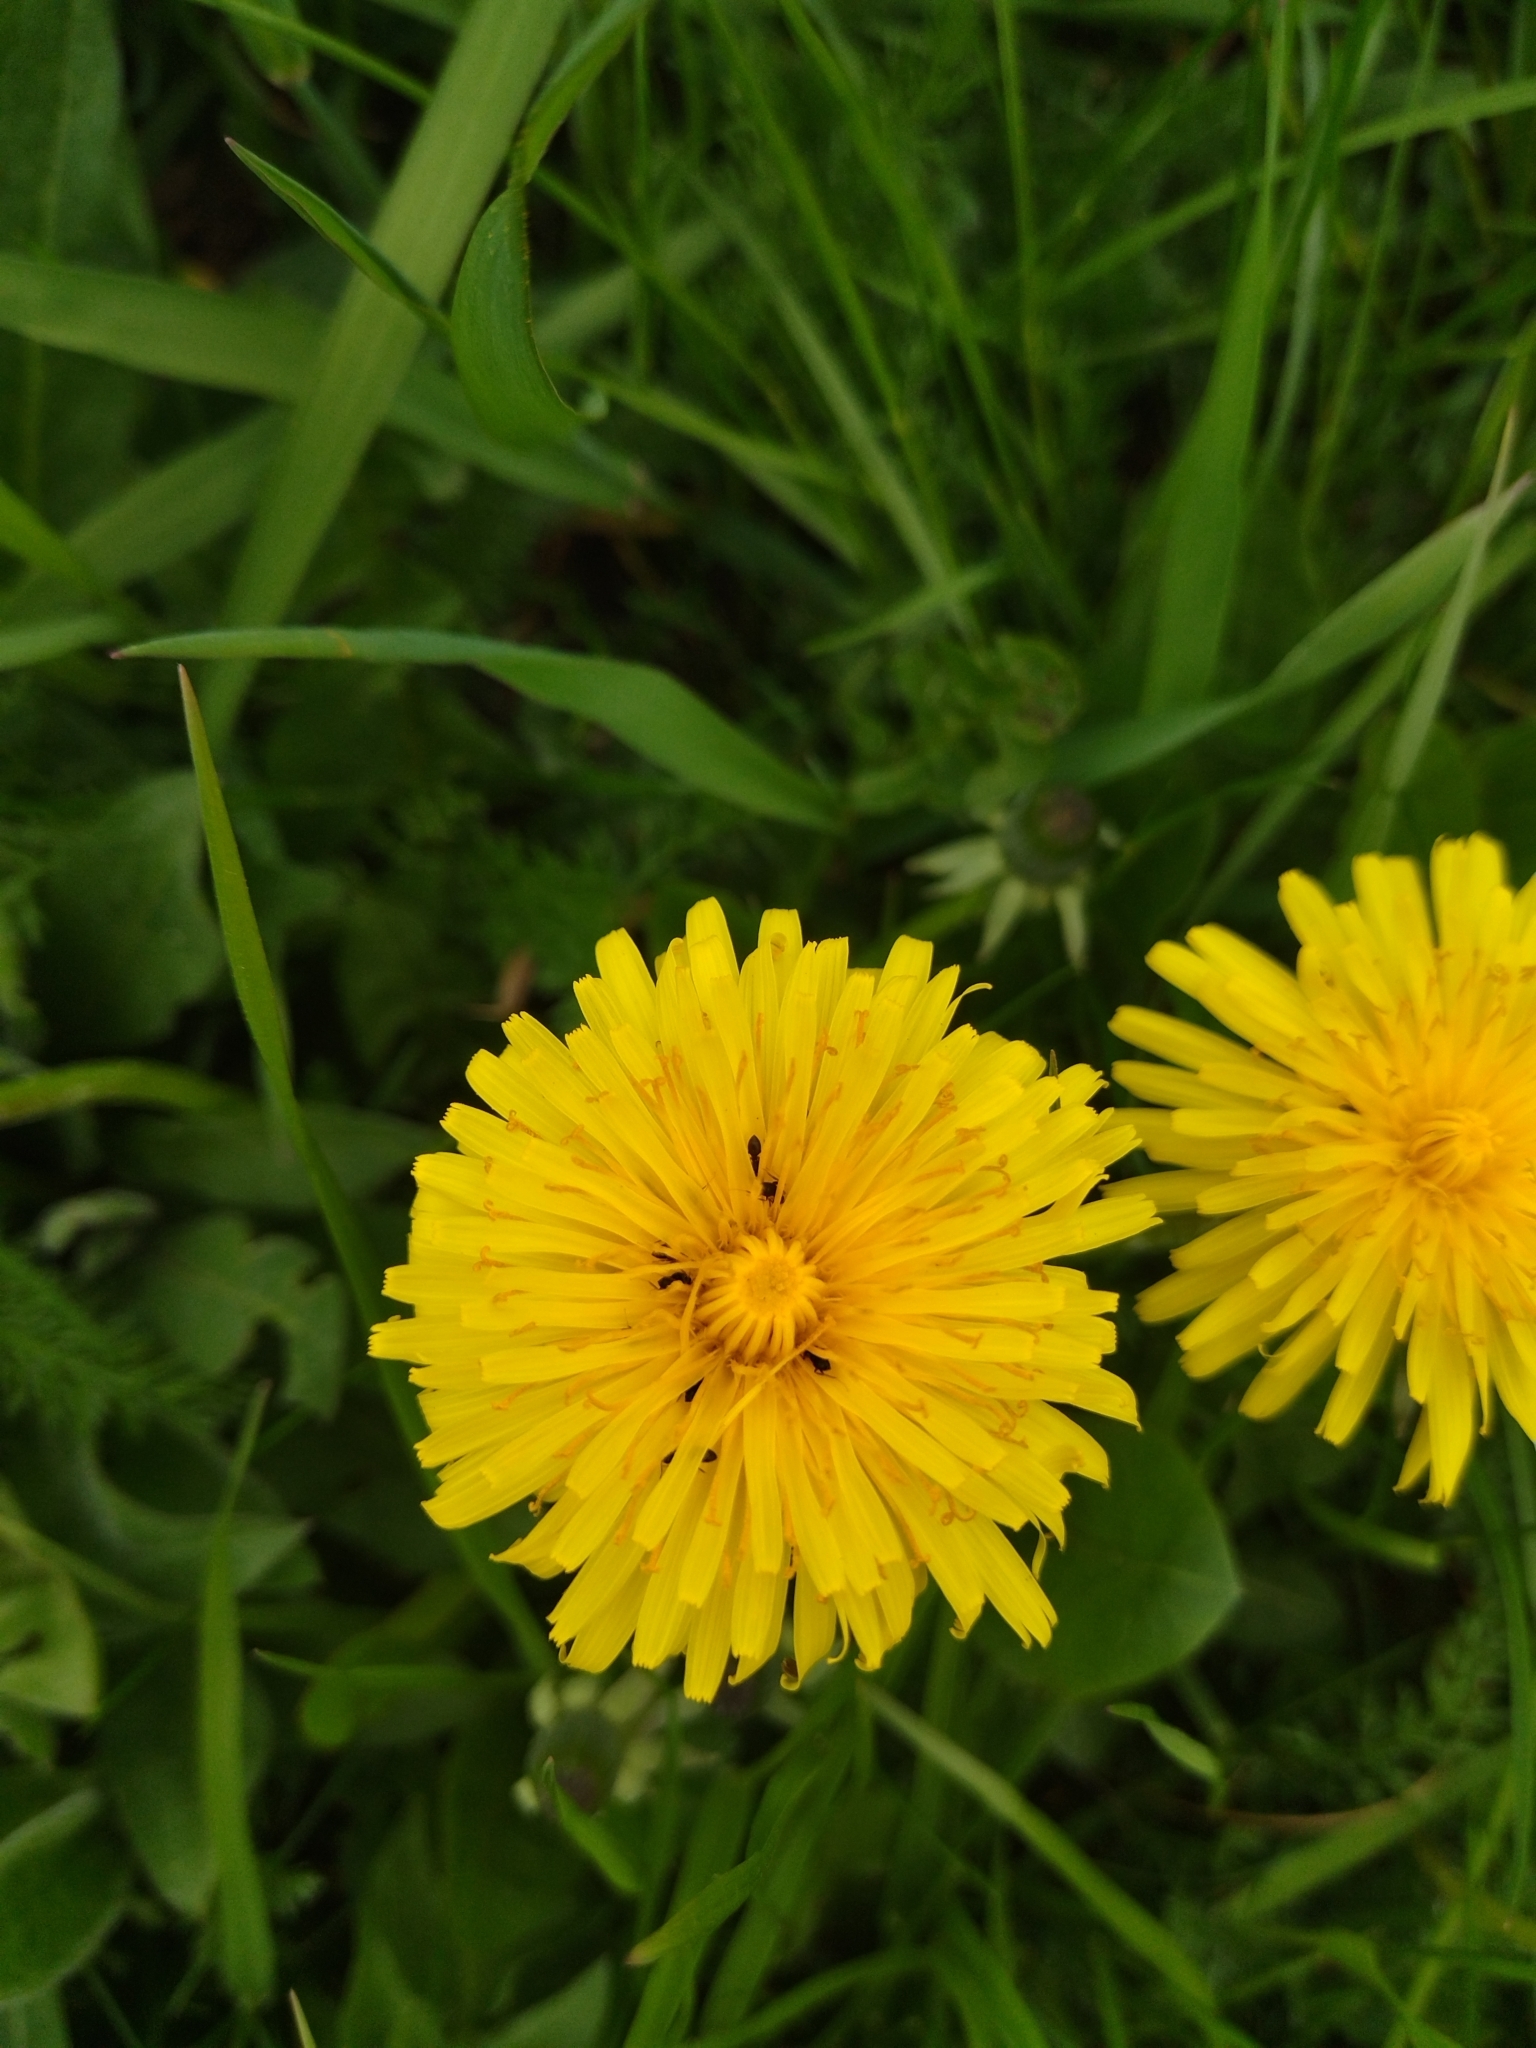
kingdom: Plantae
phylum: Tracheophyta
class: Magnoliopsida
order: Asterales
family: Asteraceae
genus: Taraxacum
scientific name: Taraxacum officinale
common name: Common dandelion
